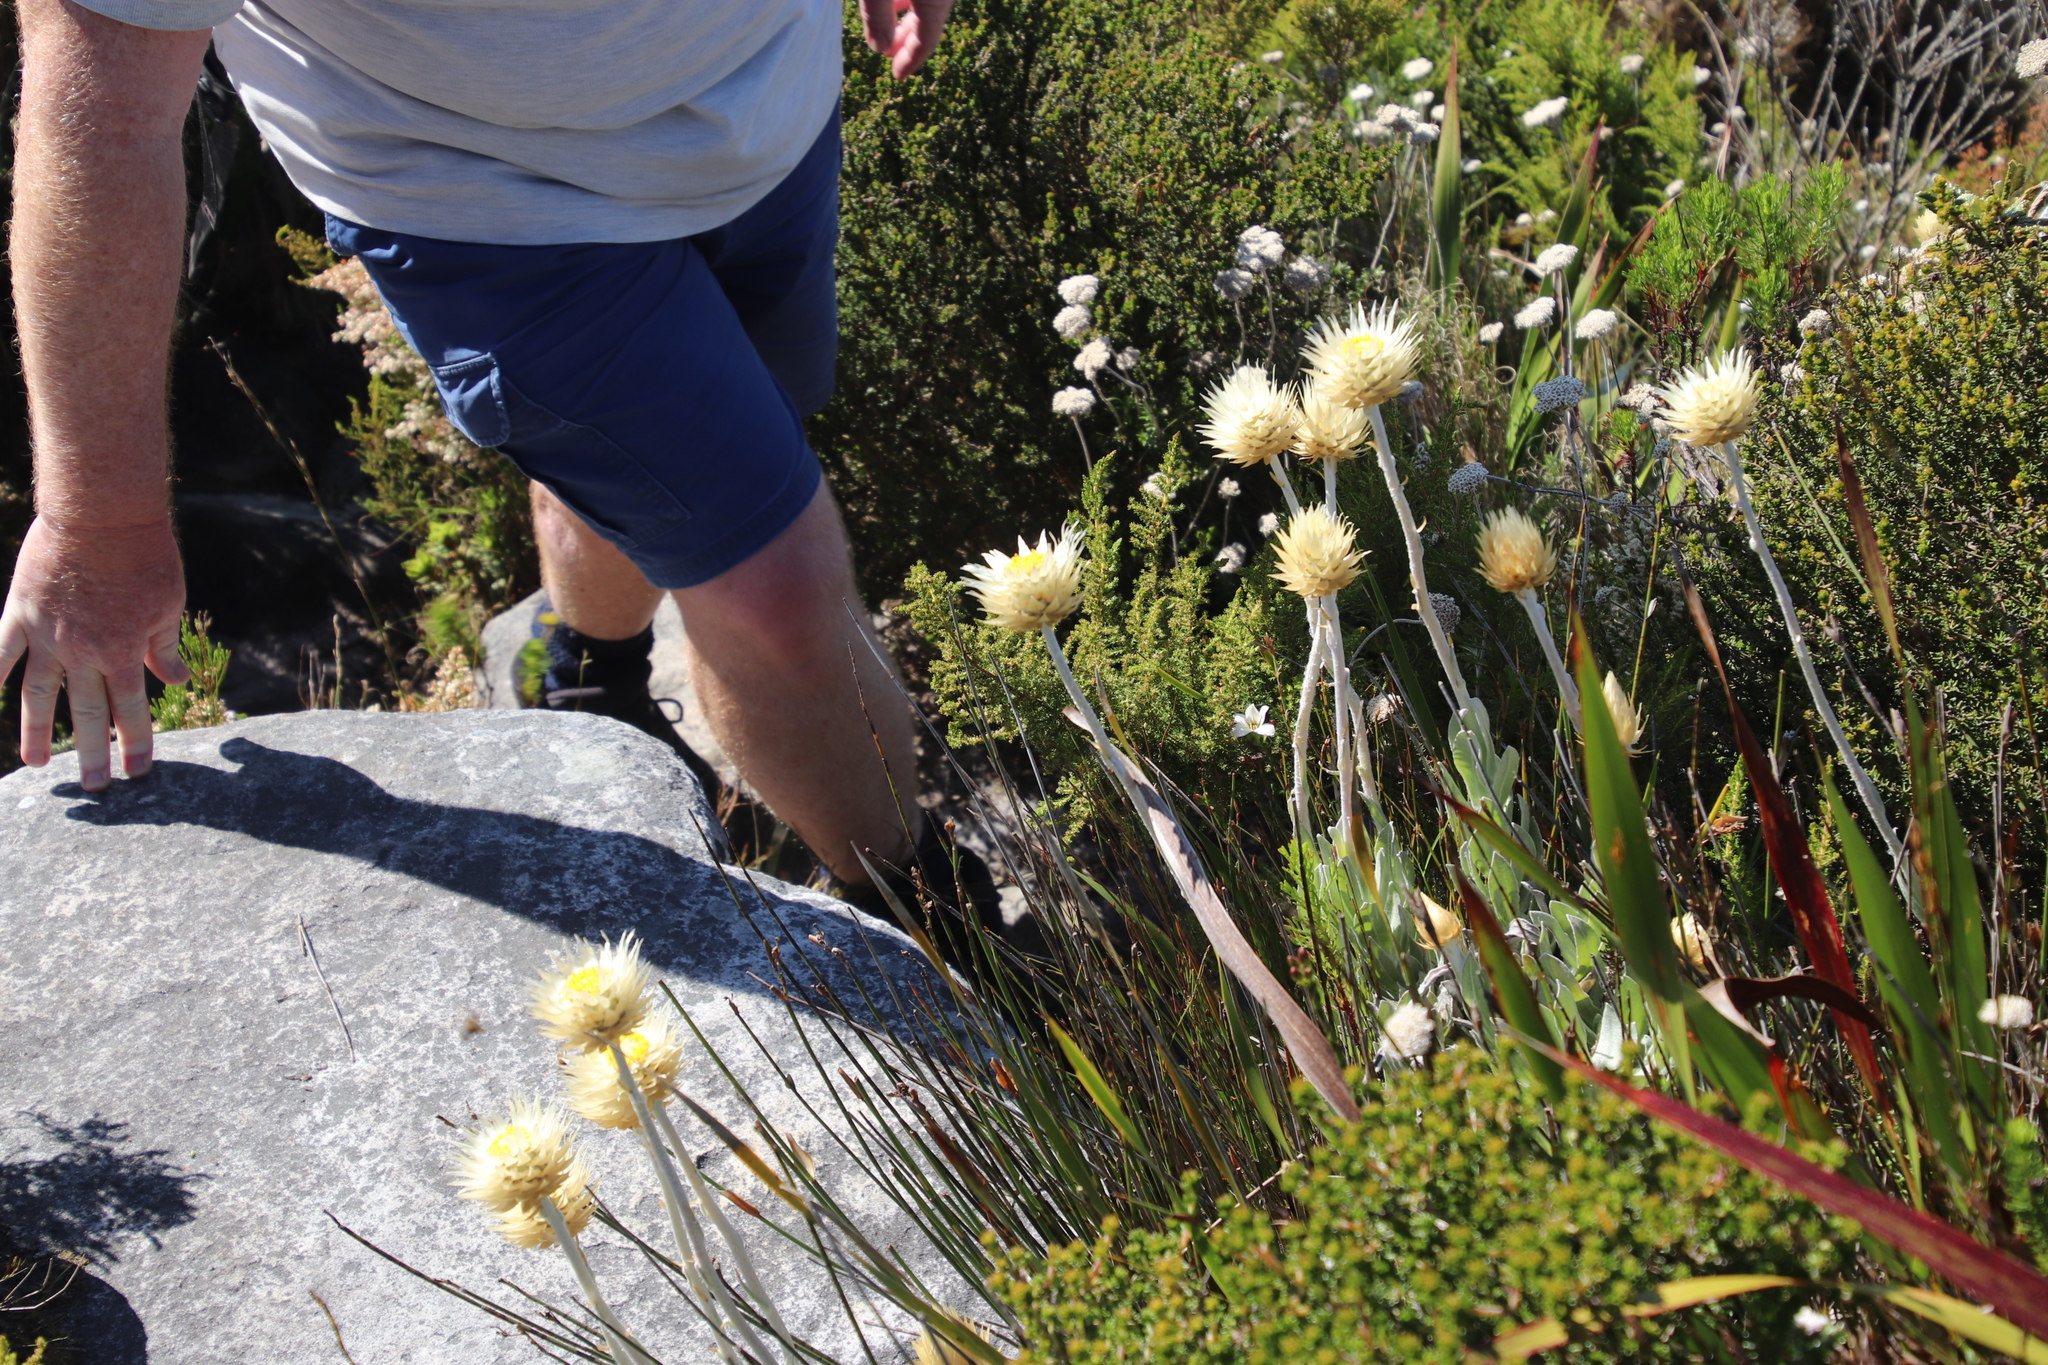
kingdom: Plantae
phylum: Tracheophyta
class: Magnoliopsida
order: Asterales
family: Asteraceae
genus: Syncarpha
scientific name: Syncarpha speciosissima
